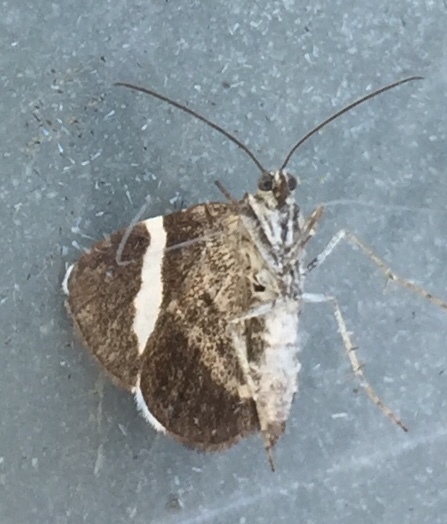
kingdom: Animalia
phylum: Arthropoda
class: Insecta
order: Lepidoptera
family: Geometridae
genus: Trichodezia
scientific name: Trichodezia albovittata
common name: White striped black
